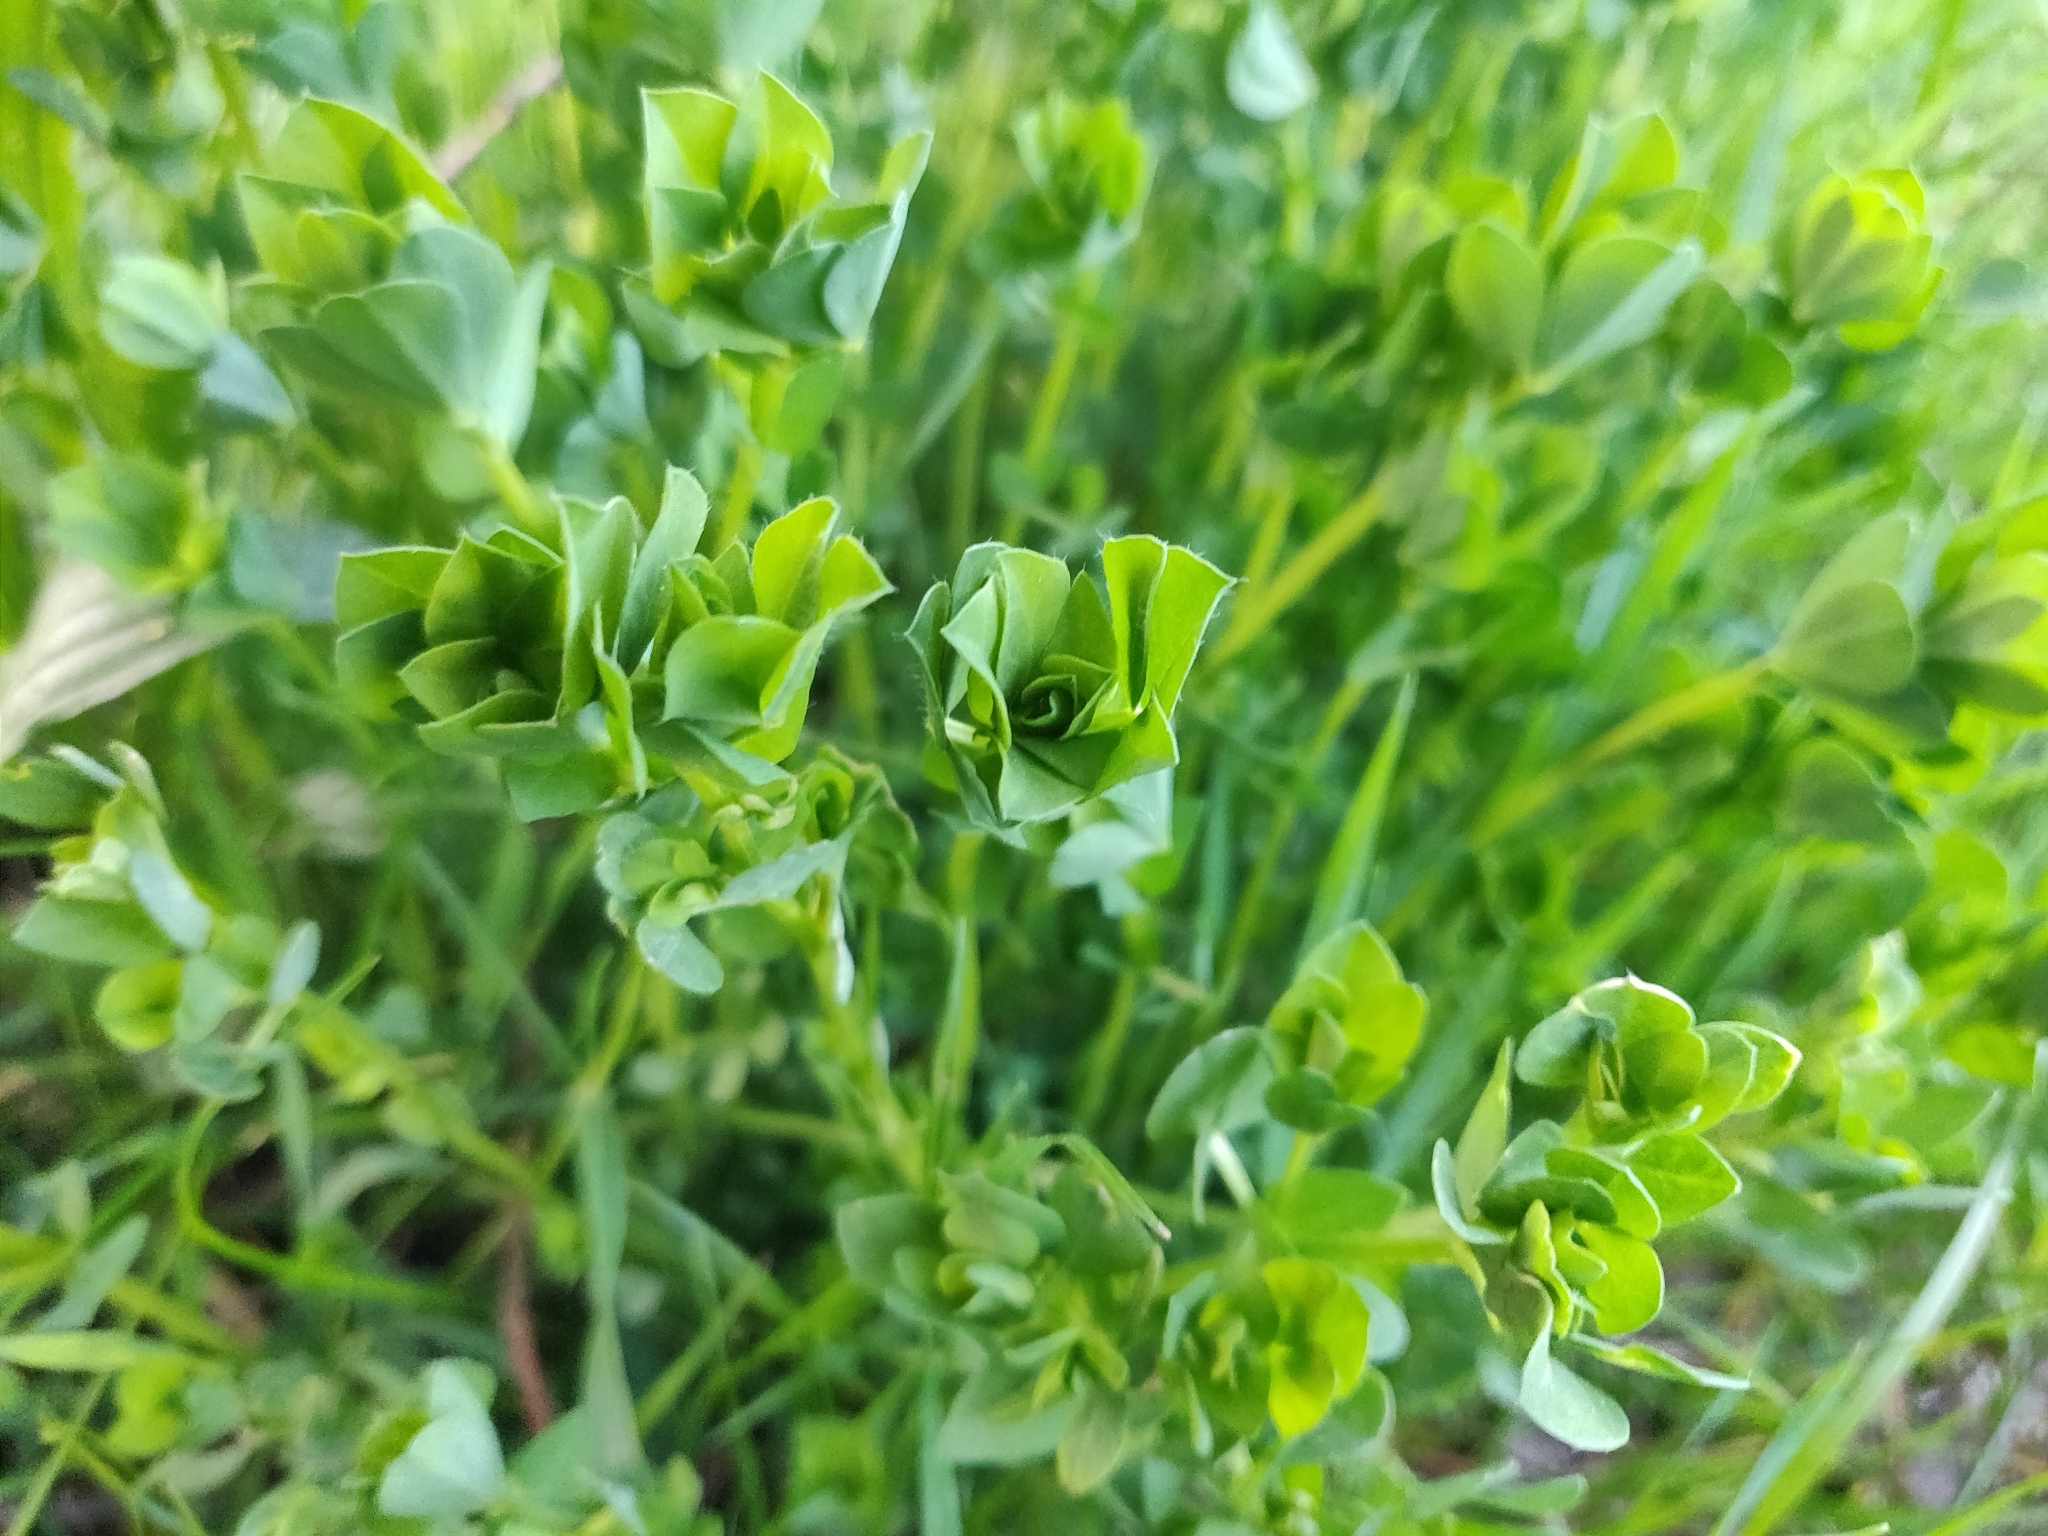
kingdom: Plantae
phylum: Tracheophyta
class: Magnoliopsida
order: Fabales
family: Fabaceae
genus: Lotus
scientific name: Lotus corniculatus
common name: Common bird's-foot-trefoil
